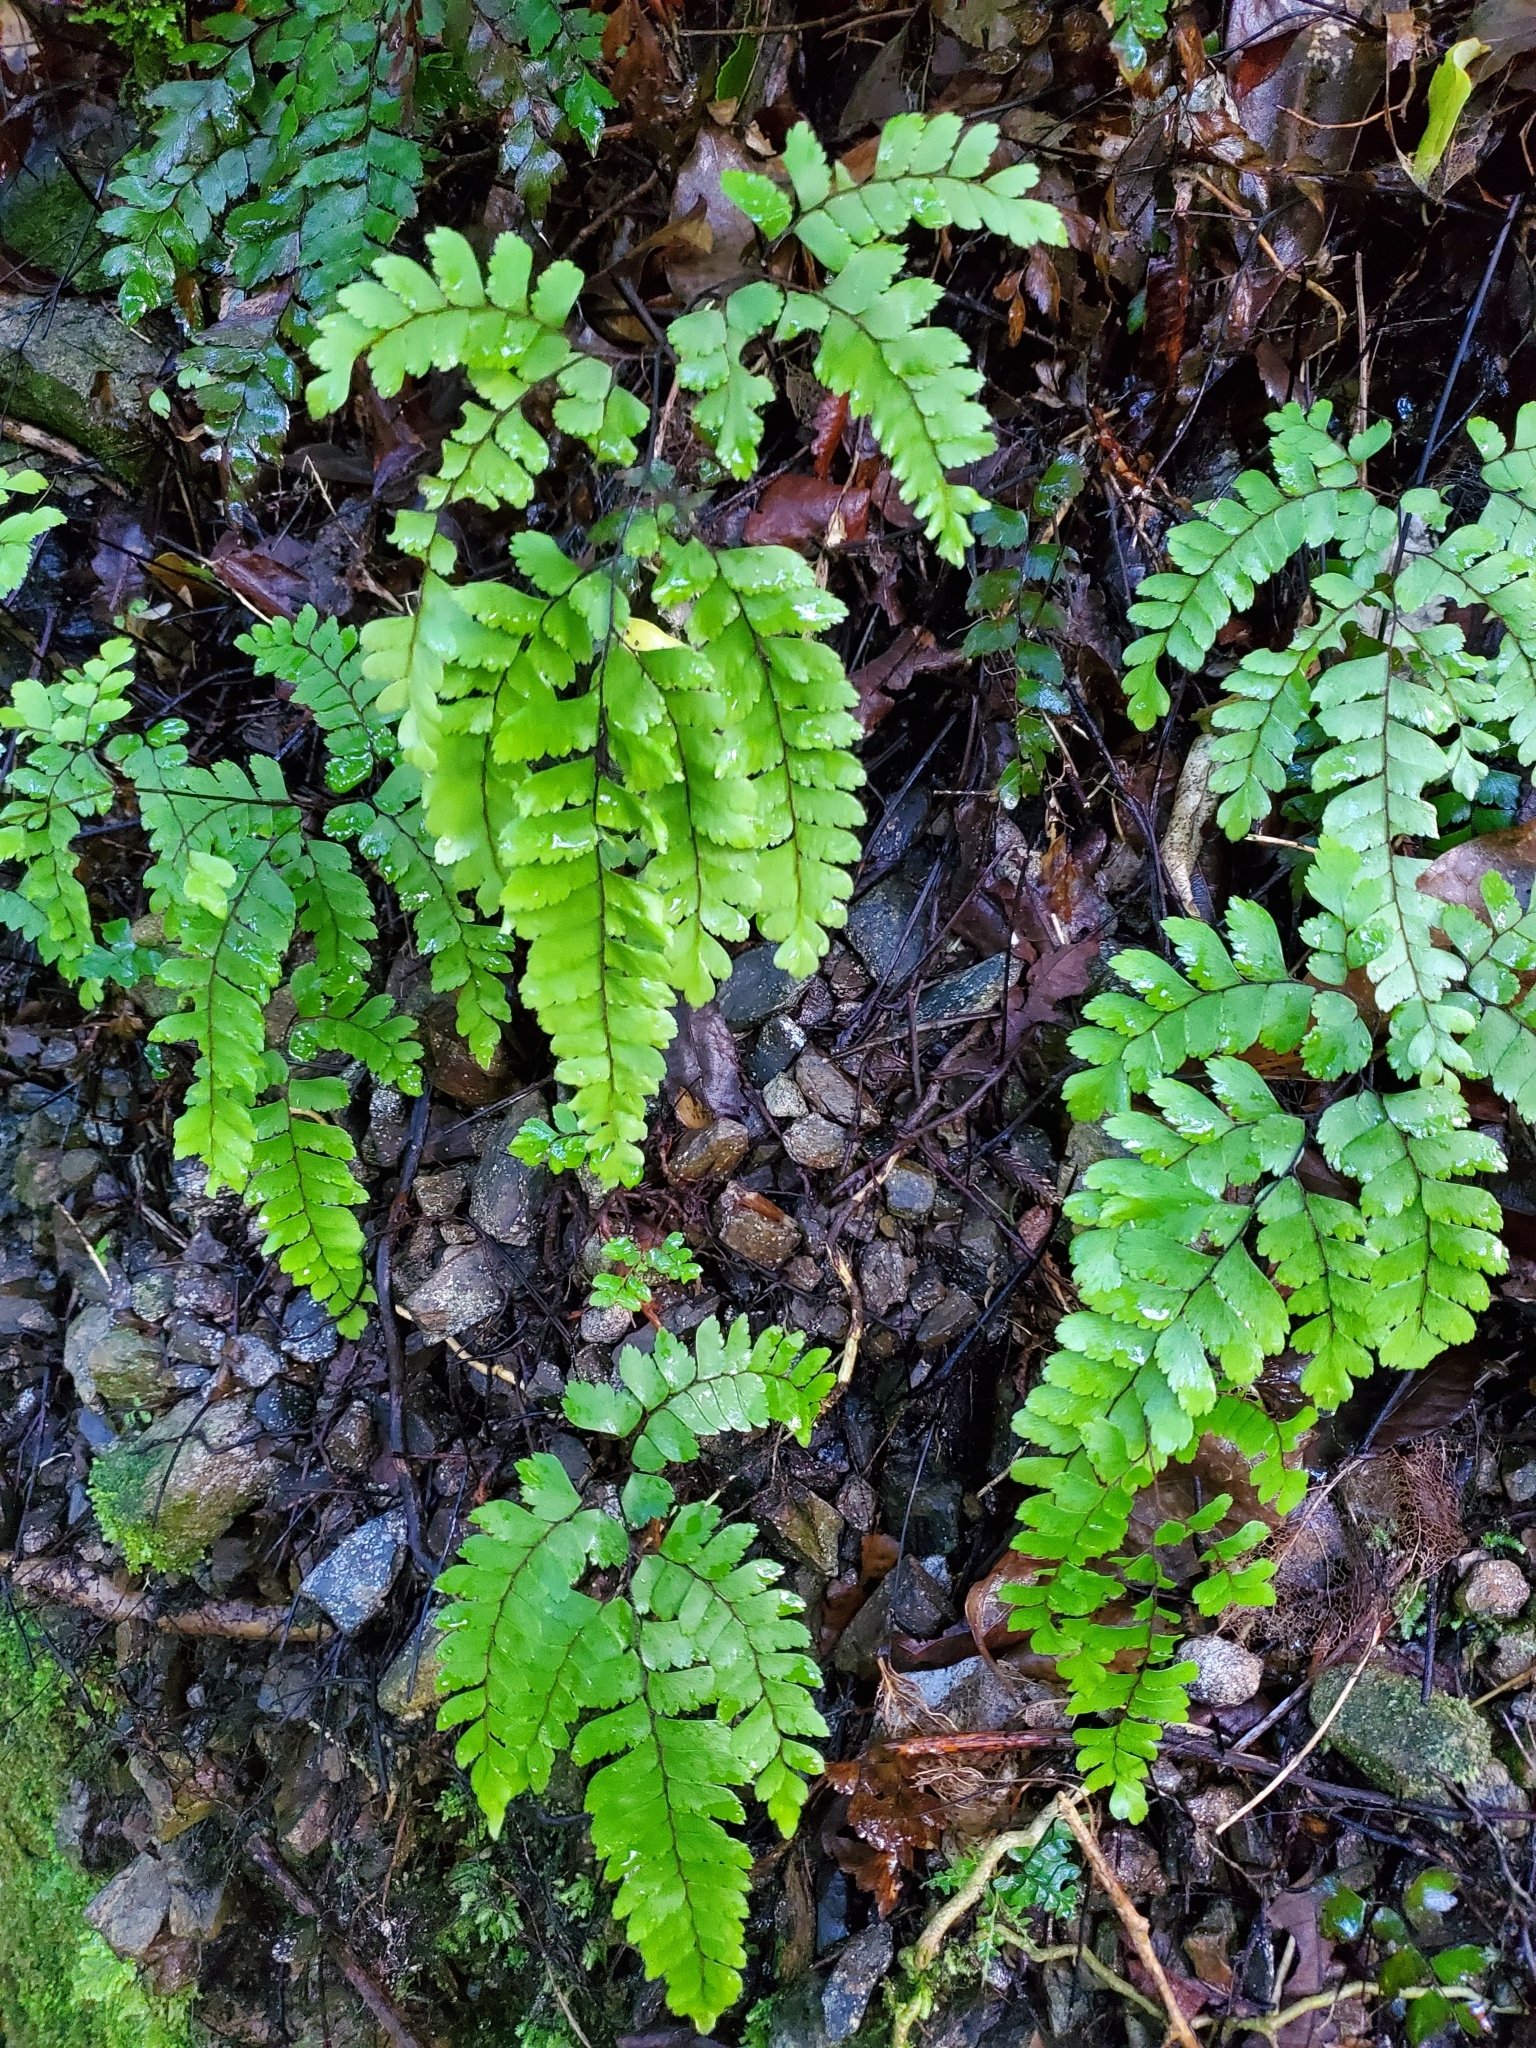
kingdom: Plantae
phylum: Tracheophyta
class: Polypodiopsida
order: Polypodiales
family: Pteridaceae
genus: Adiantum
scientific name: Adiantum cunninghamii
